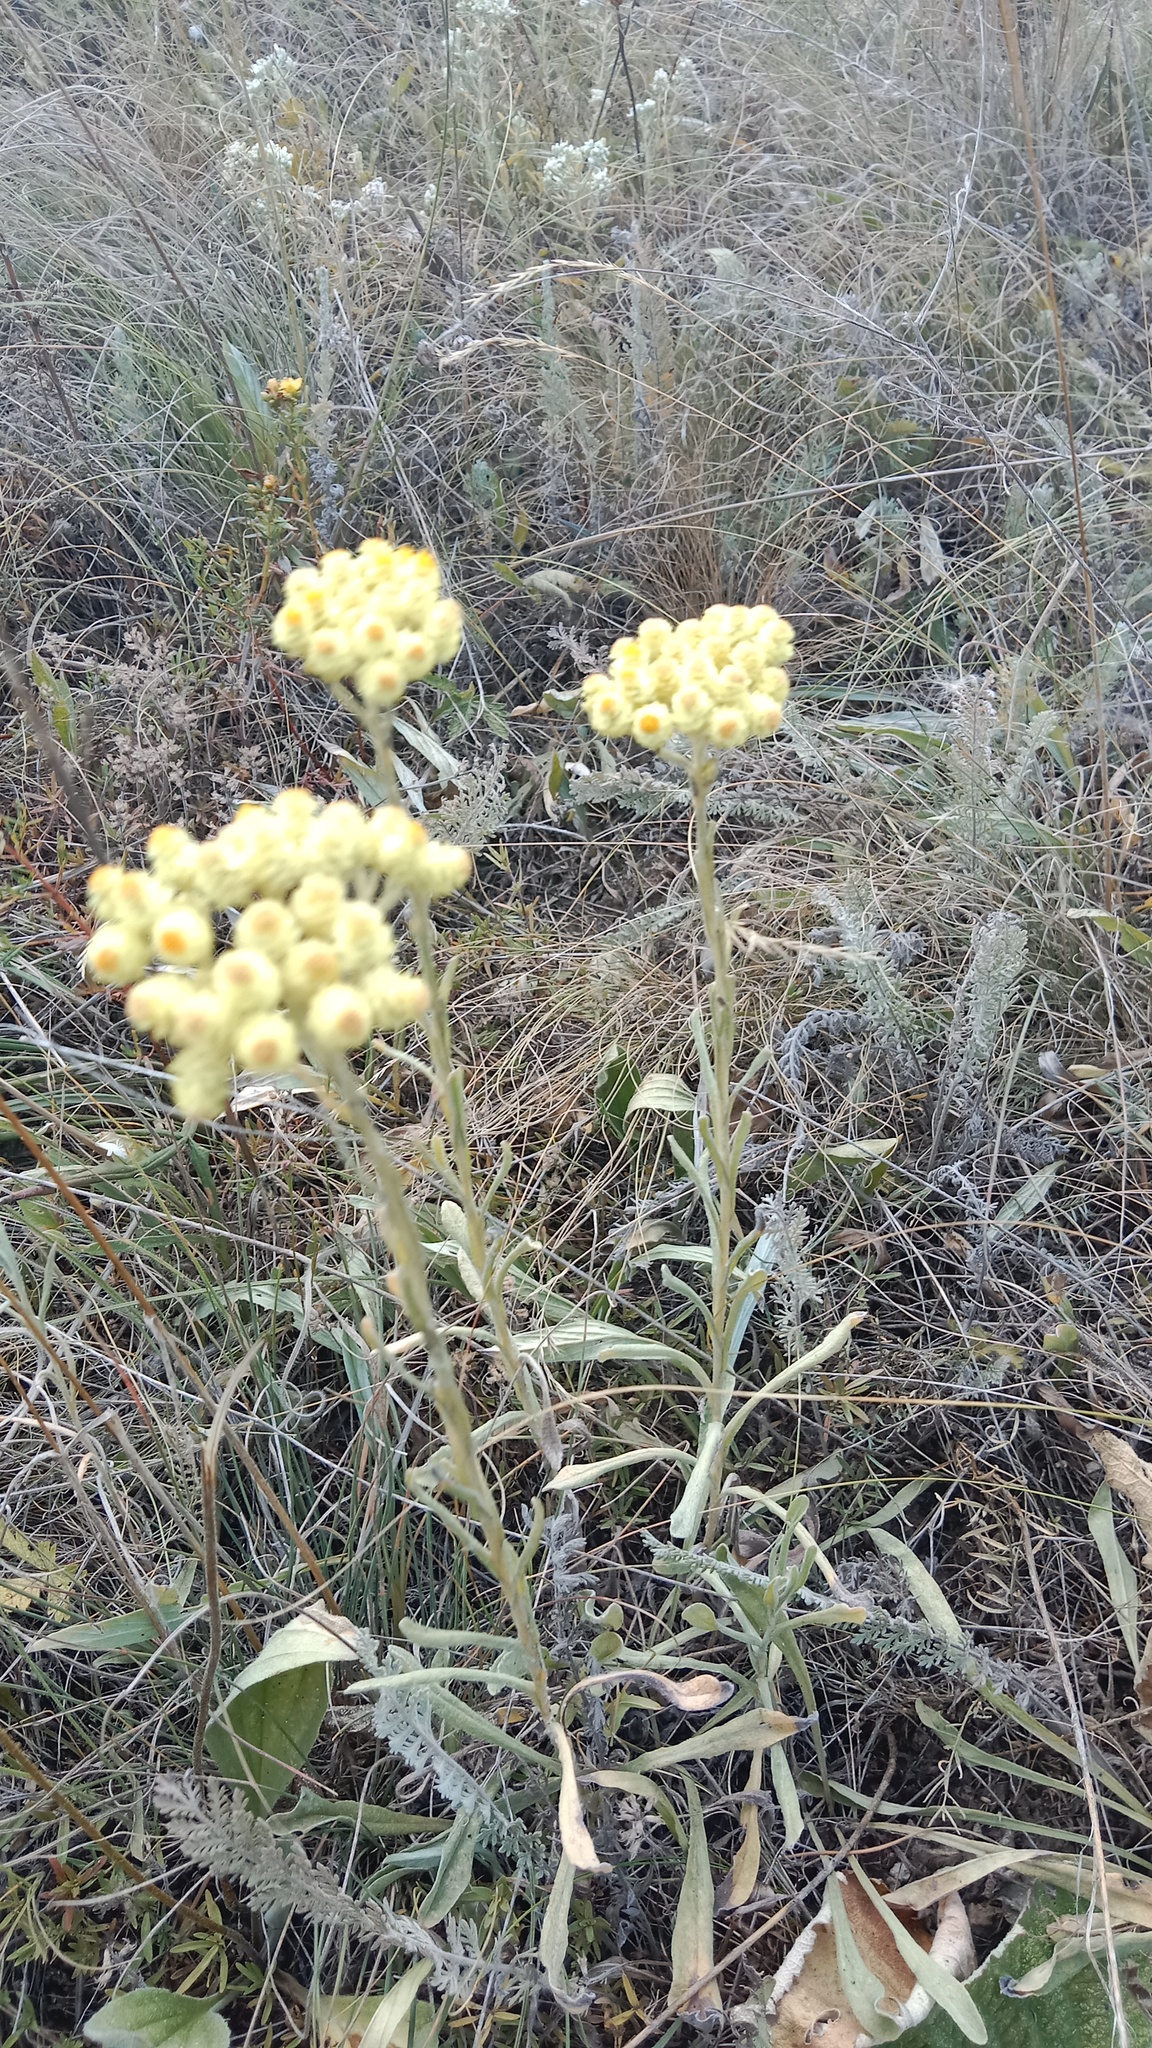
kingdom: Plantae
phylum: Tracheophyta
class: Magnoliopsida
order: Asterales
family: Asteraceae
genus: Helichrysum
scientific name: Helichrysum arenarium
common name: Strawflower
